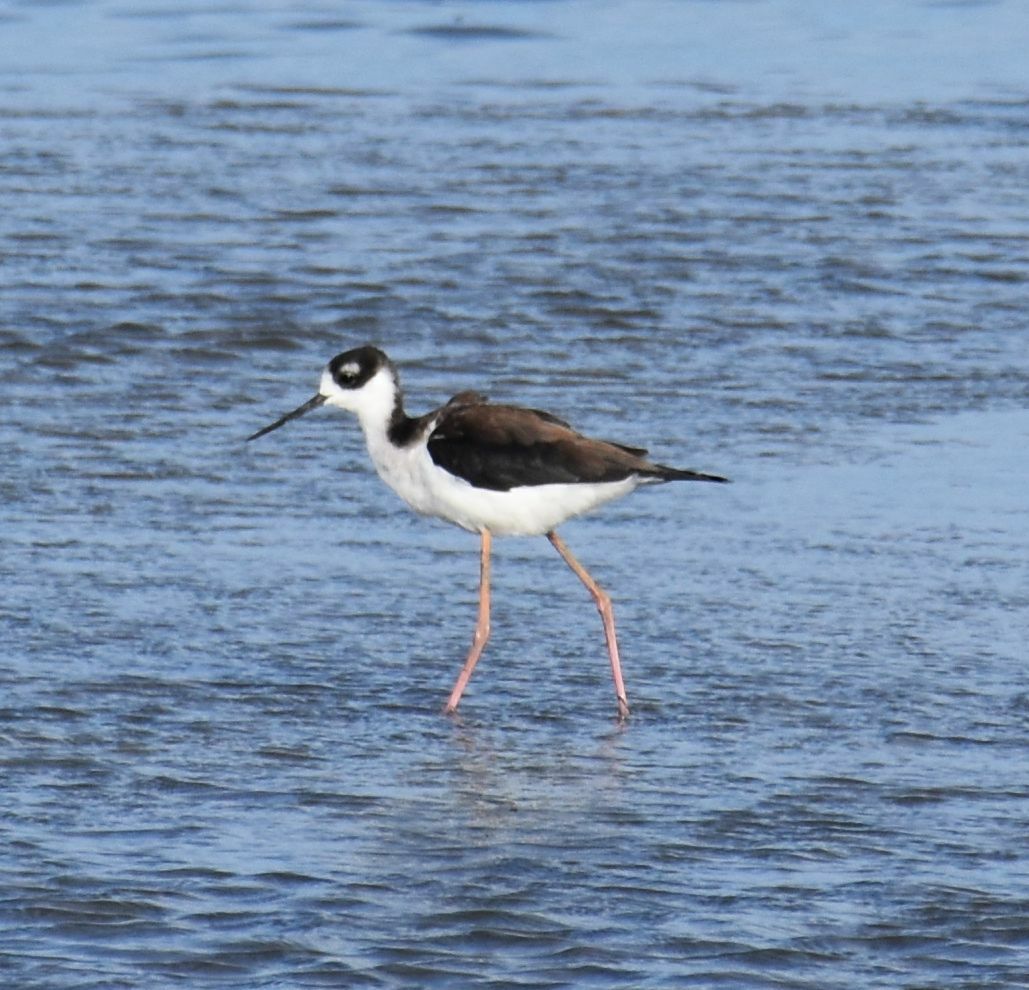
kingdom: Animalia
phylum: Chordata
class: Aves
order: Charadriiformes
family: Recurvirostridae
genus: Himantopus
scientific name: Himantopus mexicanus
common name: Black-necked stilt
